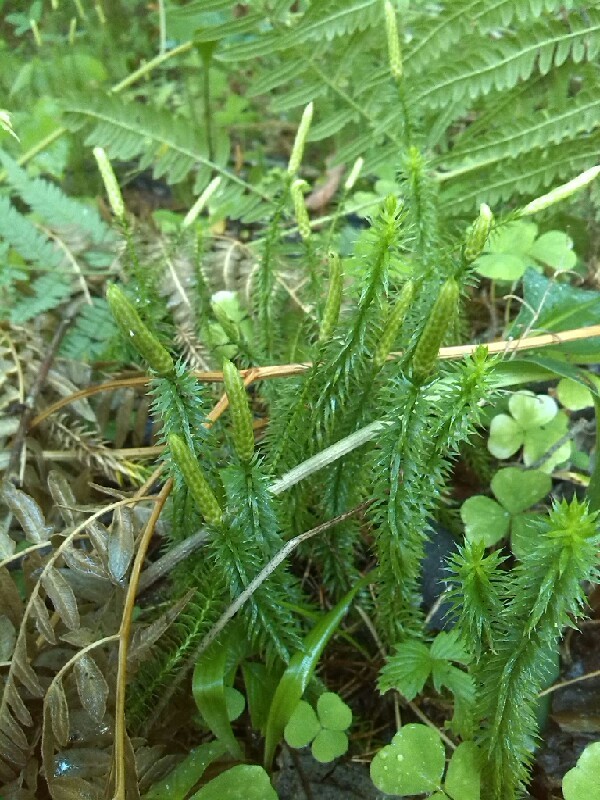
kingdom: Plantae
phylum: Tracheophyta
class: Lycopodiopsida
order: Lycopodiales
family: Lycopodiaceae
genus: Spinulum
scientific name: Spinulum annotinum
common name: Interrupted club-moss
